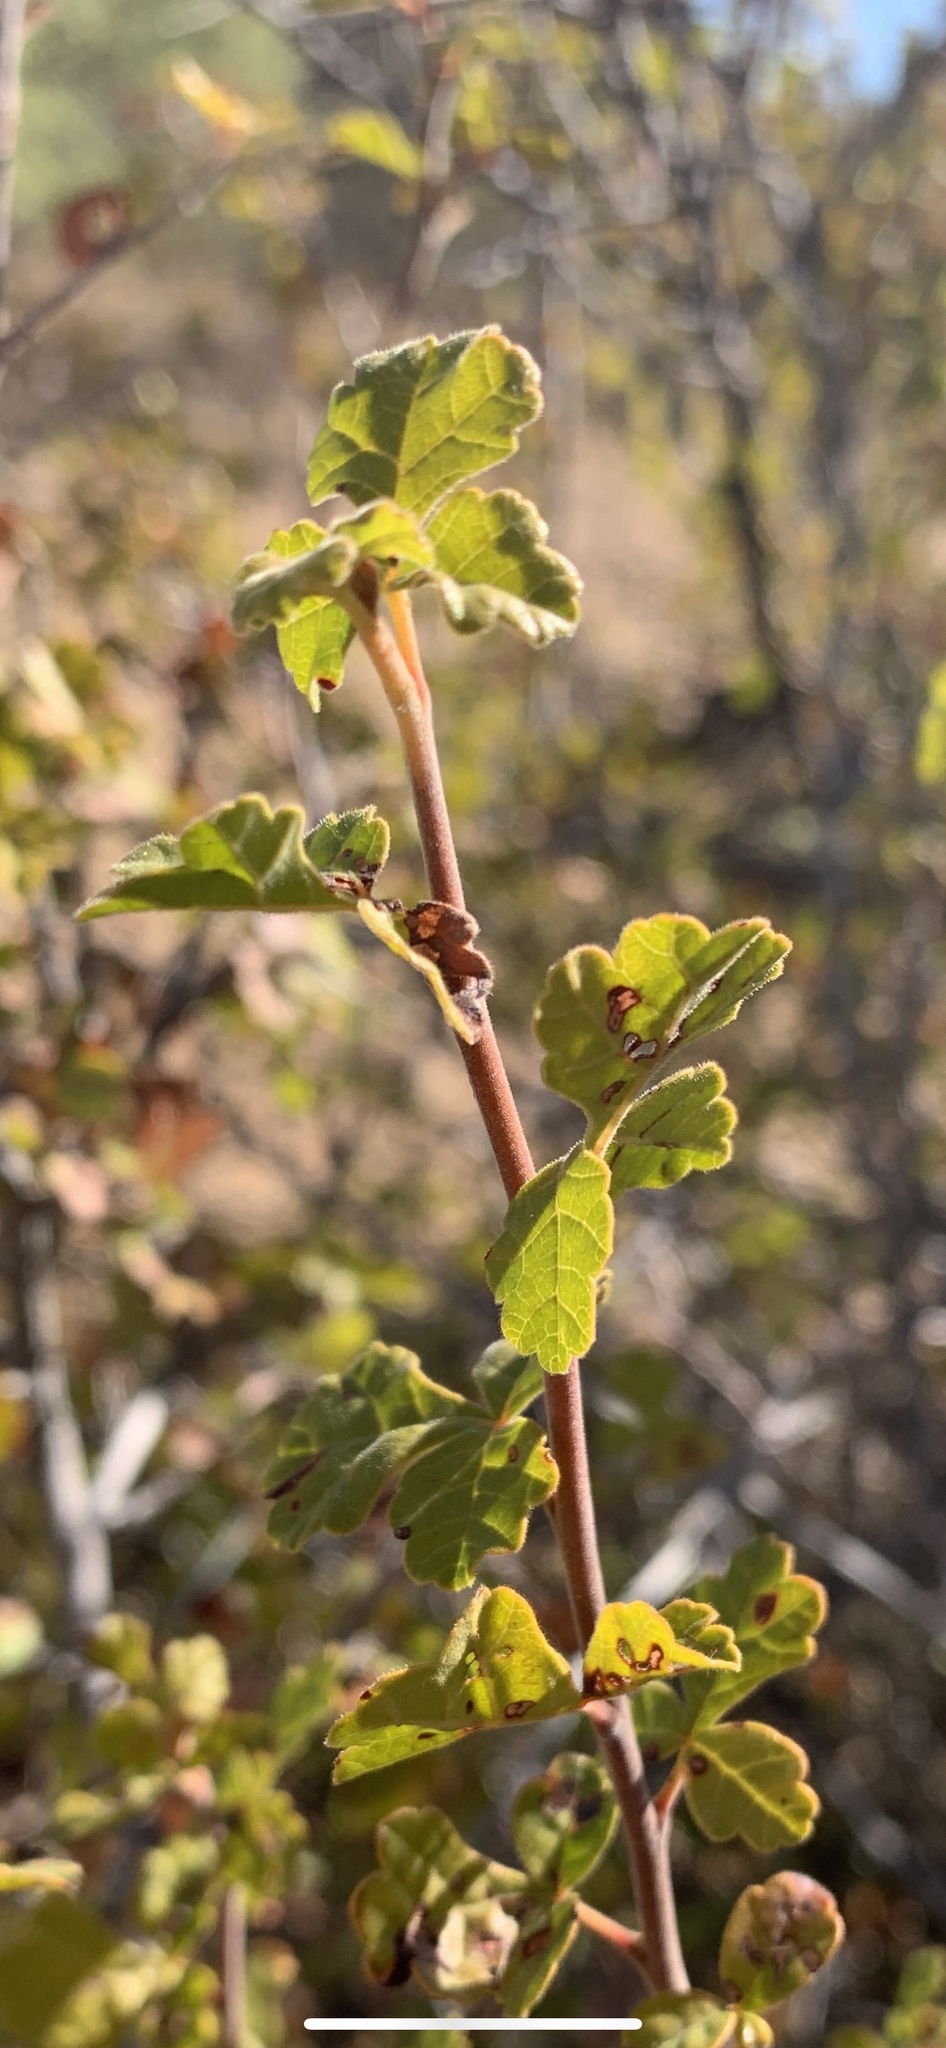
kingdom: Plantae
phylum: Tracheophyta
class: Magnoliopsida
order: Sapindales
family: Anacardiaceae
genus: Rhus
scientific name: Rhus aromatica
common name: Aromatic sumac
